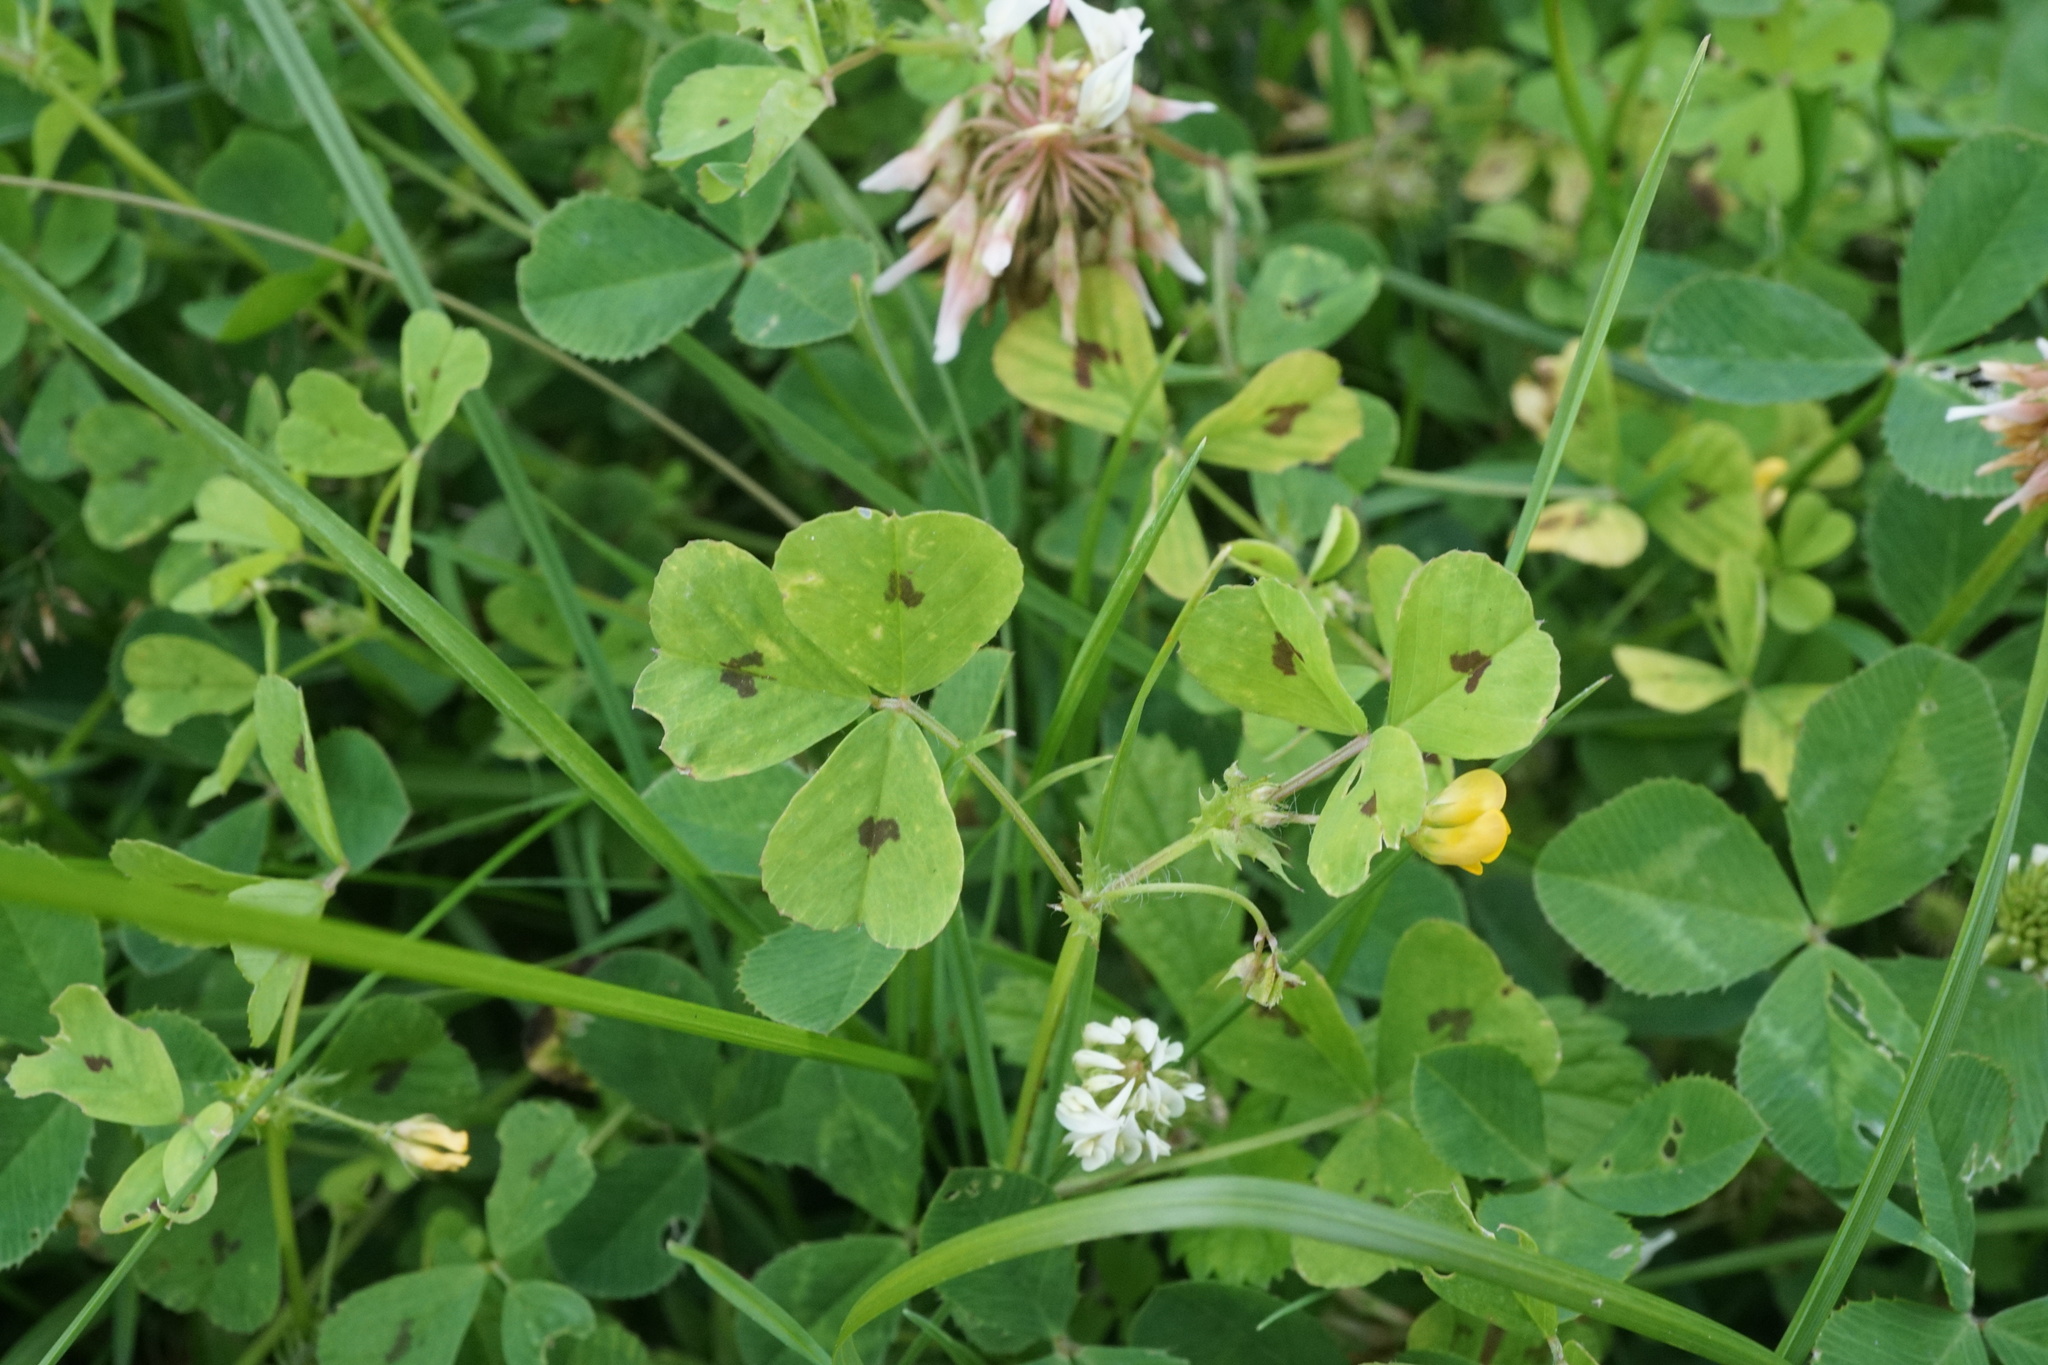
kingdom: Plantae
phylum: Tracheophyta
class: Magnoliopsida
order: Fabales
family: Fabaceae
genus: Medicago
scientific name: Medicago arabica
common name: Spotted medick
